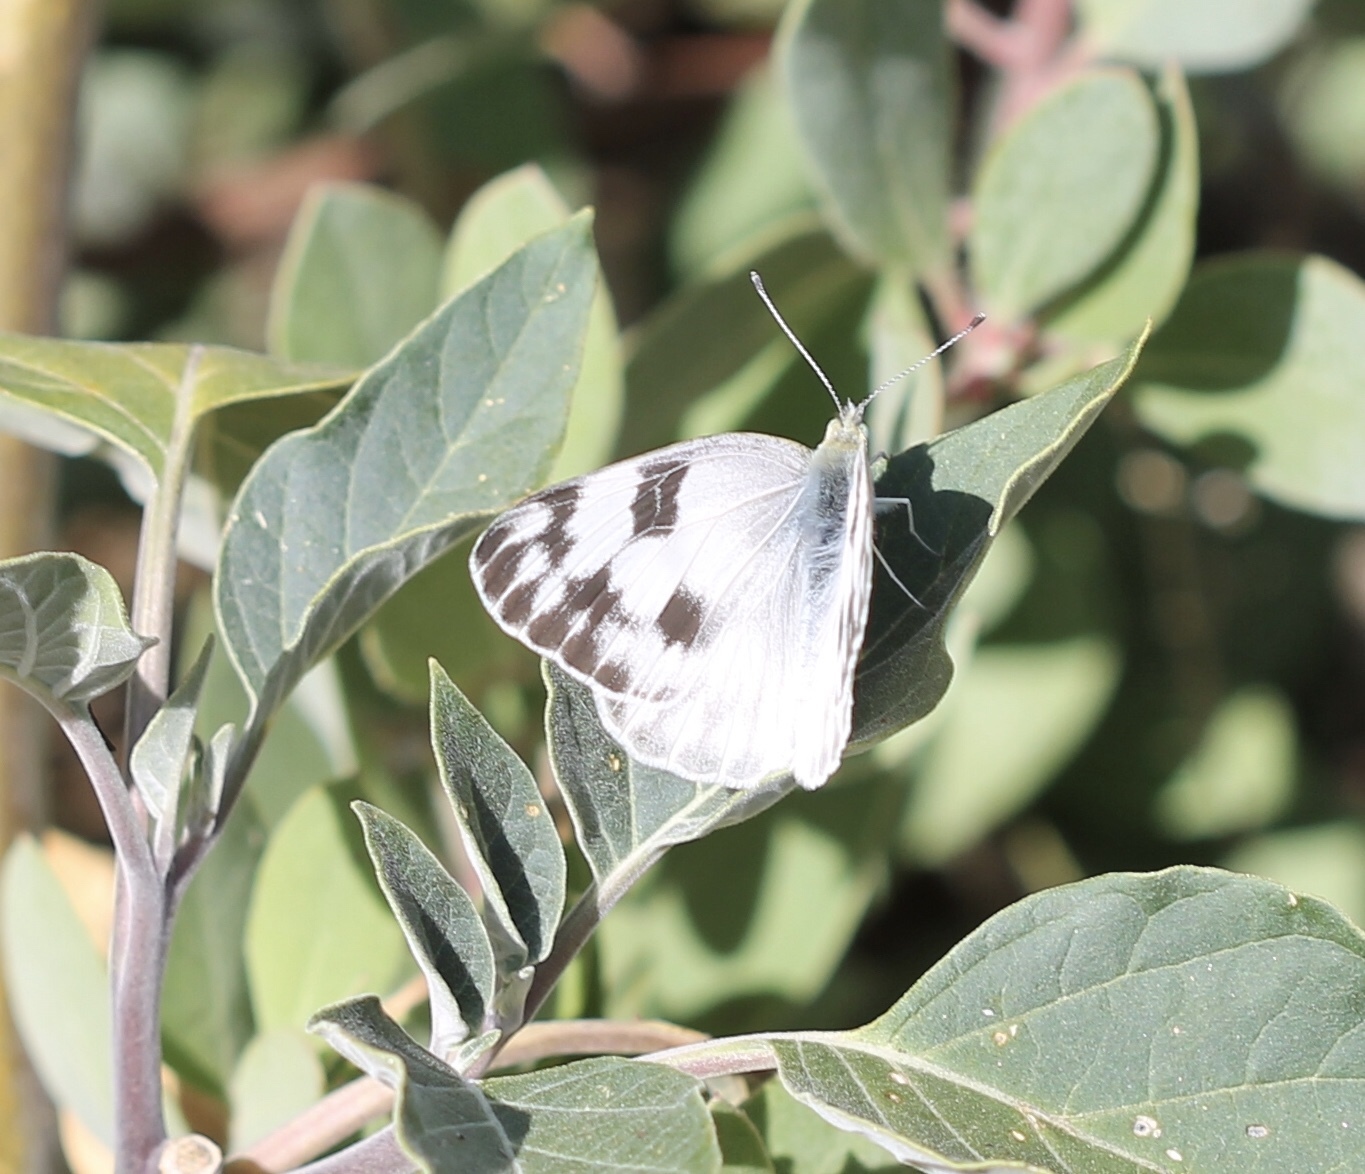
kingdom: Animalia
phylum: Arthropoda
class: Insecta
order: Lepidoptera
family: Pieridae
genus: Pontia
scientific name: Pontia protodice
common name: Checkered white
